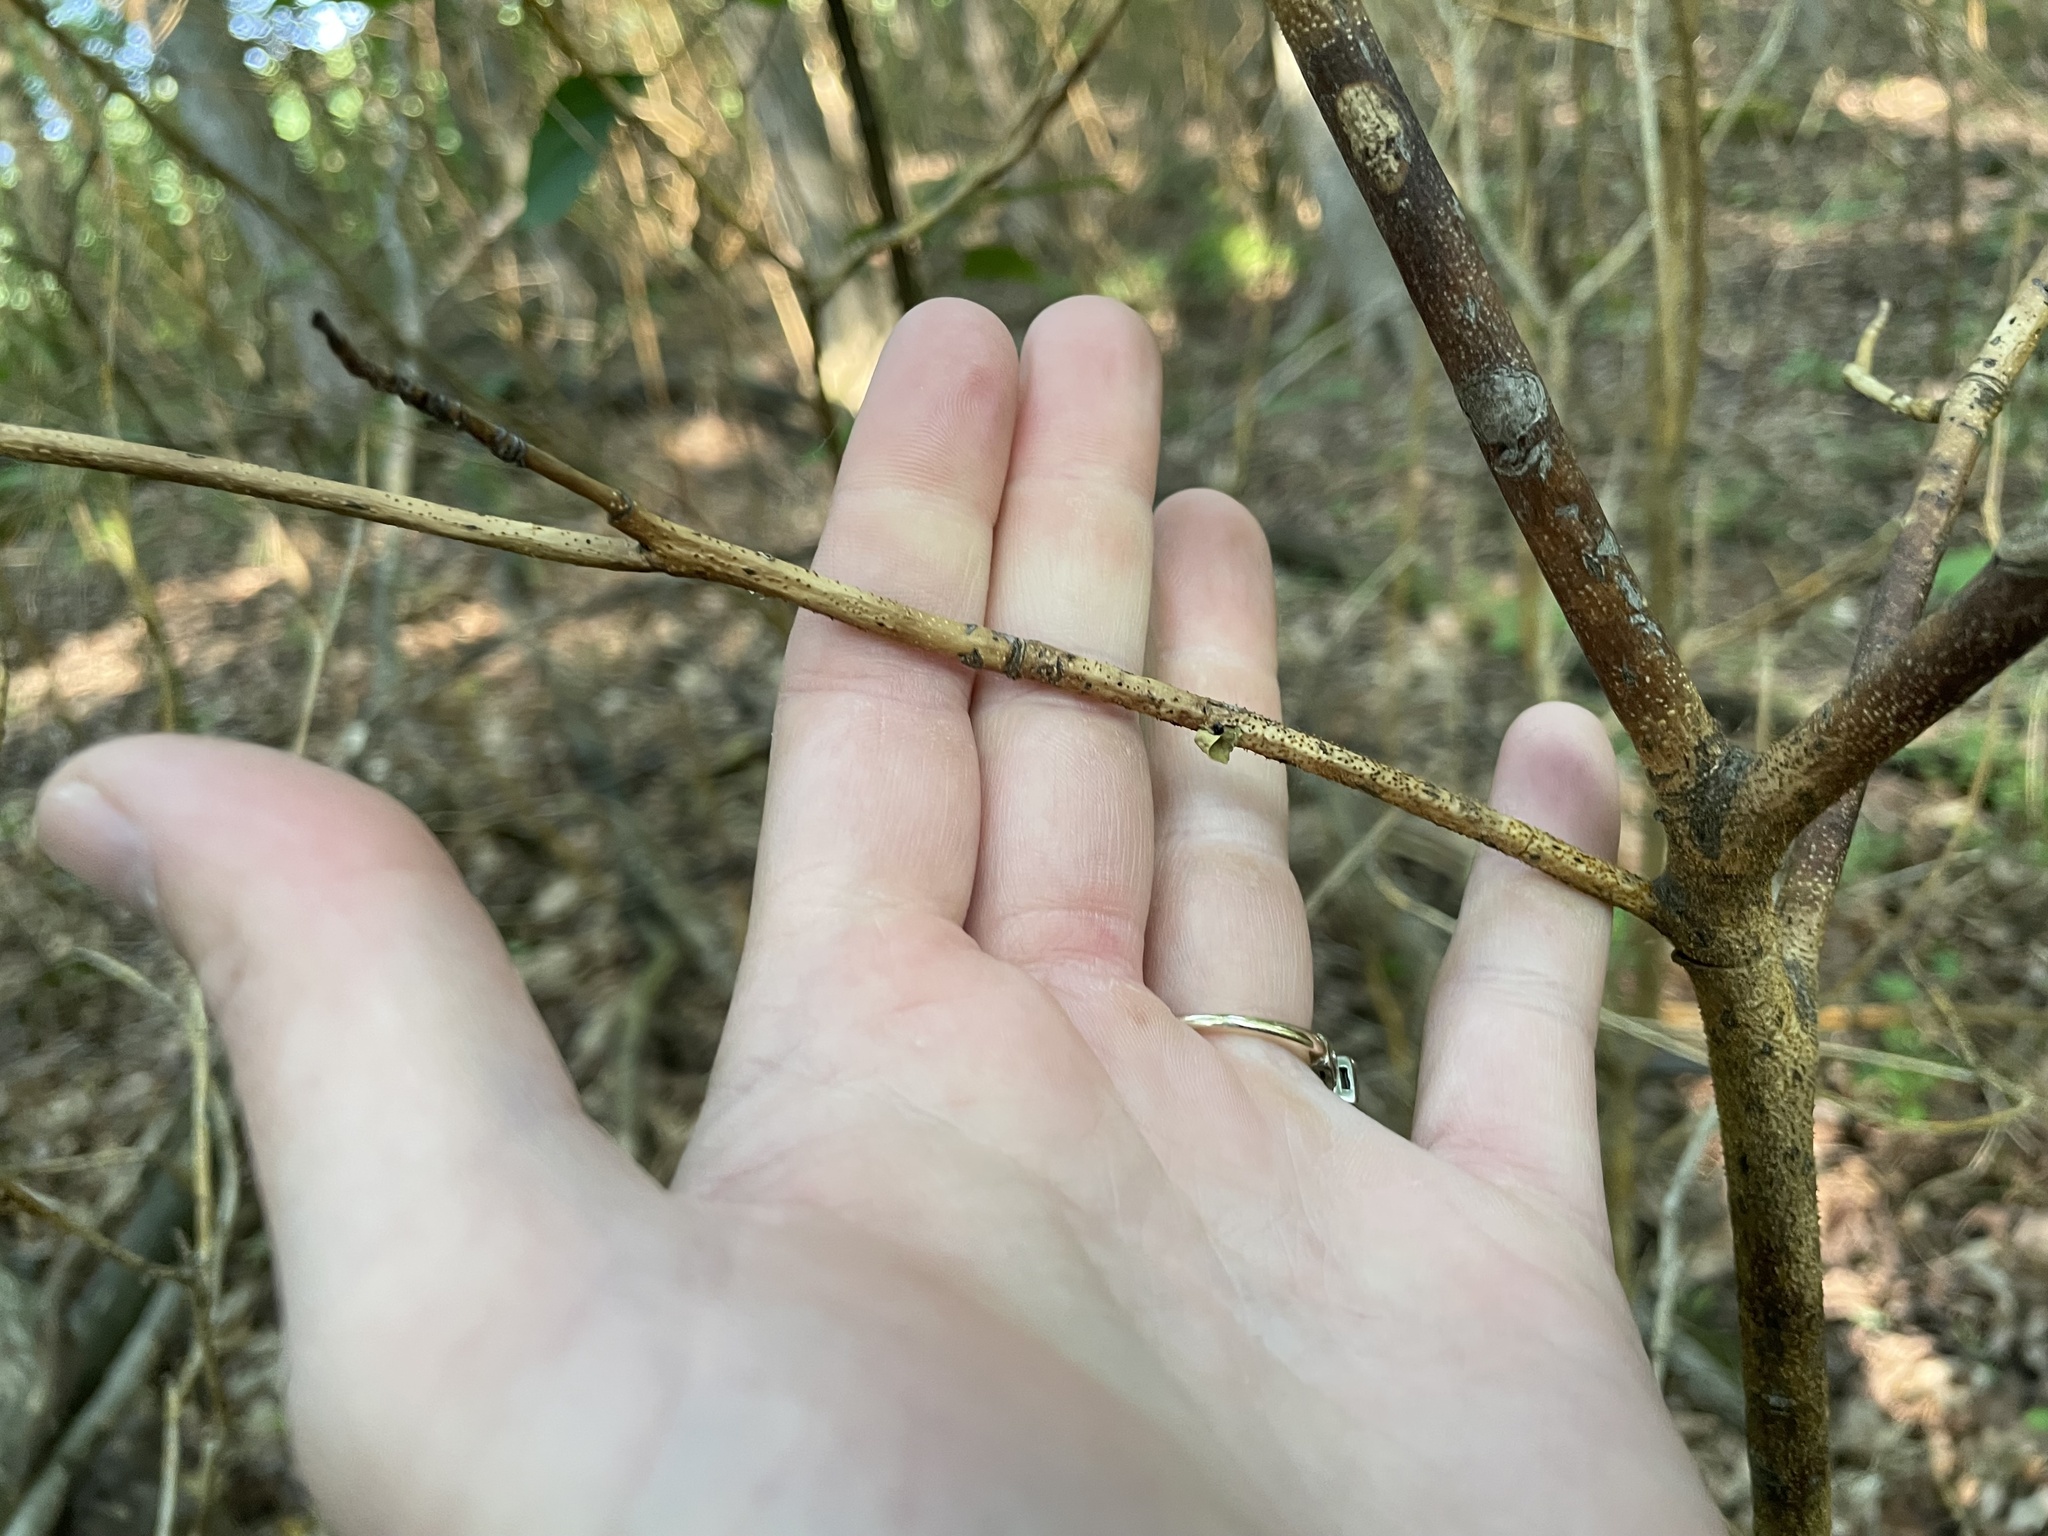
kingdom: Plantae
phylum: Tracheophyta
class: Magnoliopsida
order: Cornales
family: Cornaceae
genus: Cornus
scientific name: Cornus alternifolia
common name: Pagoda dogwood
